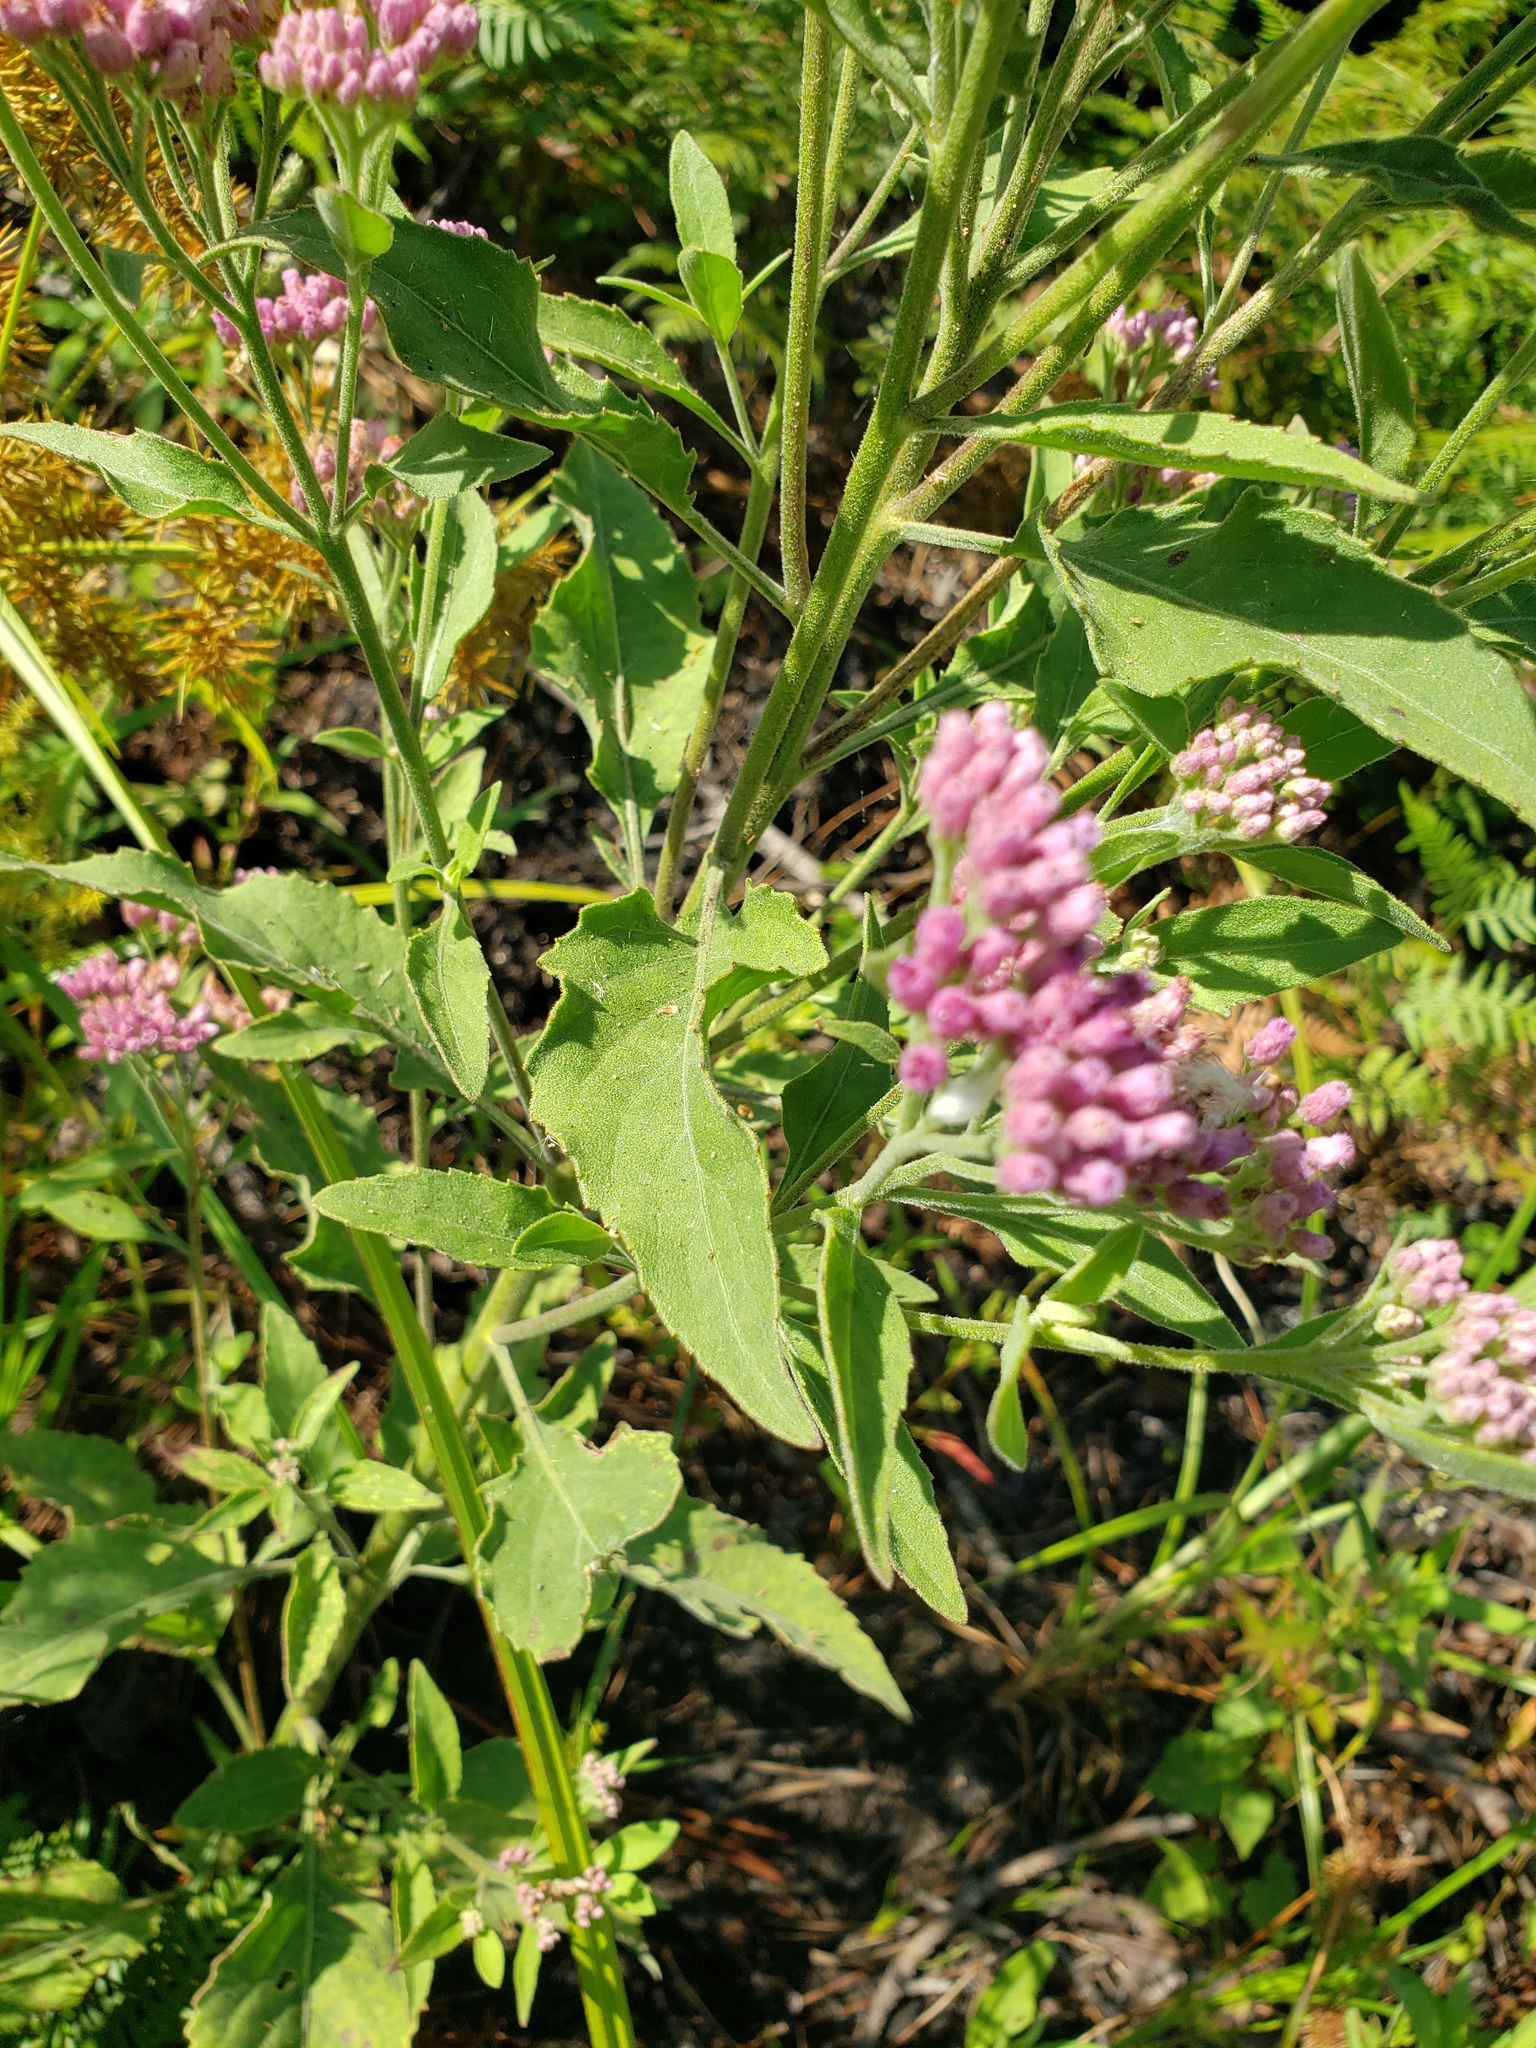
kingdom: Plantae
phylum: Tracheophyta
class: Magnoliopsida
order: Asterales
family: Asteraceae
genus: Pluchea
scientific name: Pluchea odorata
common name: Saltmarsh fleabane
